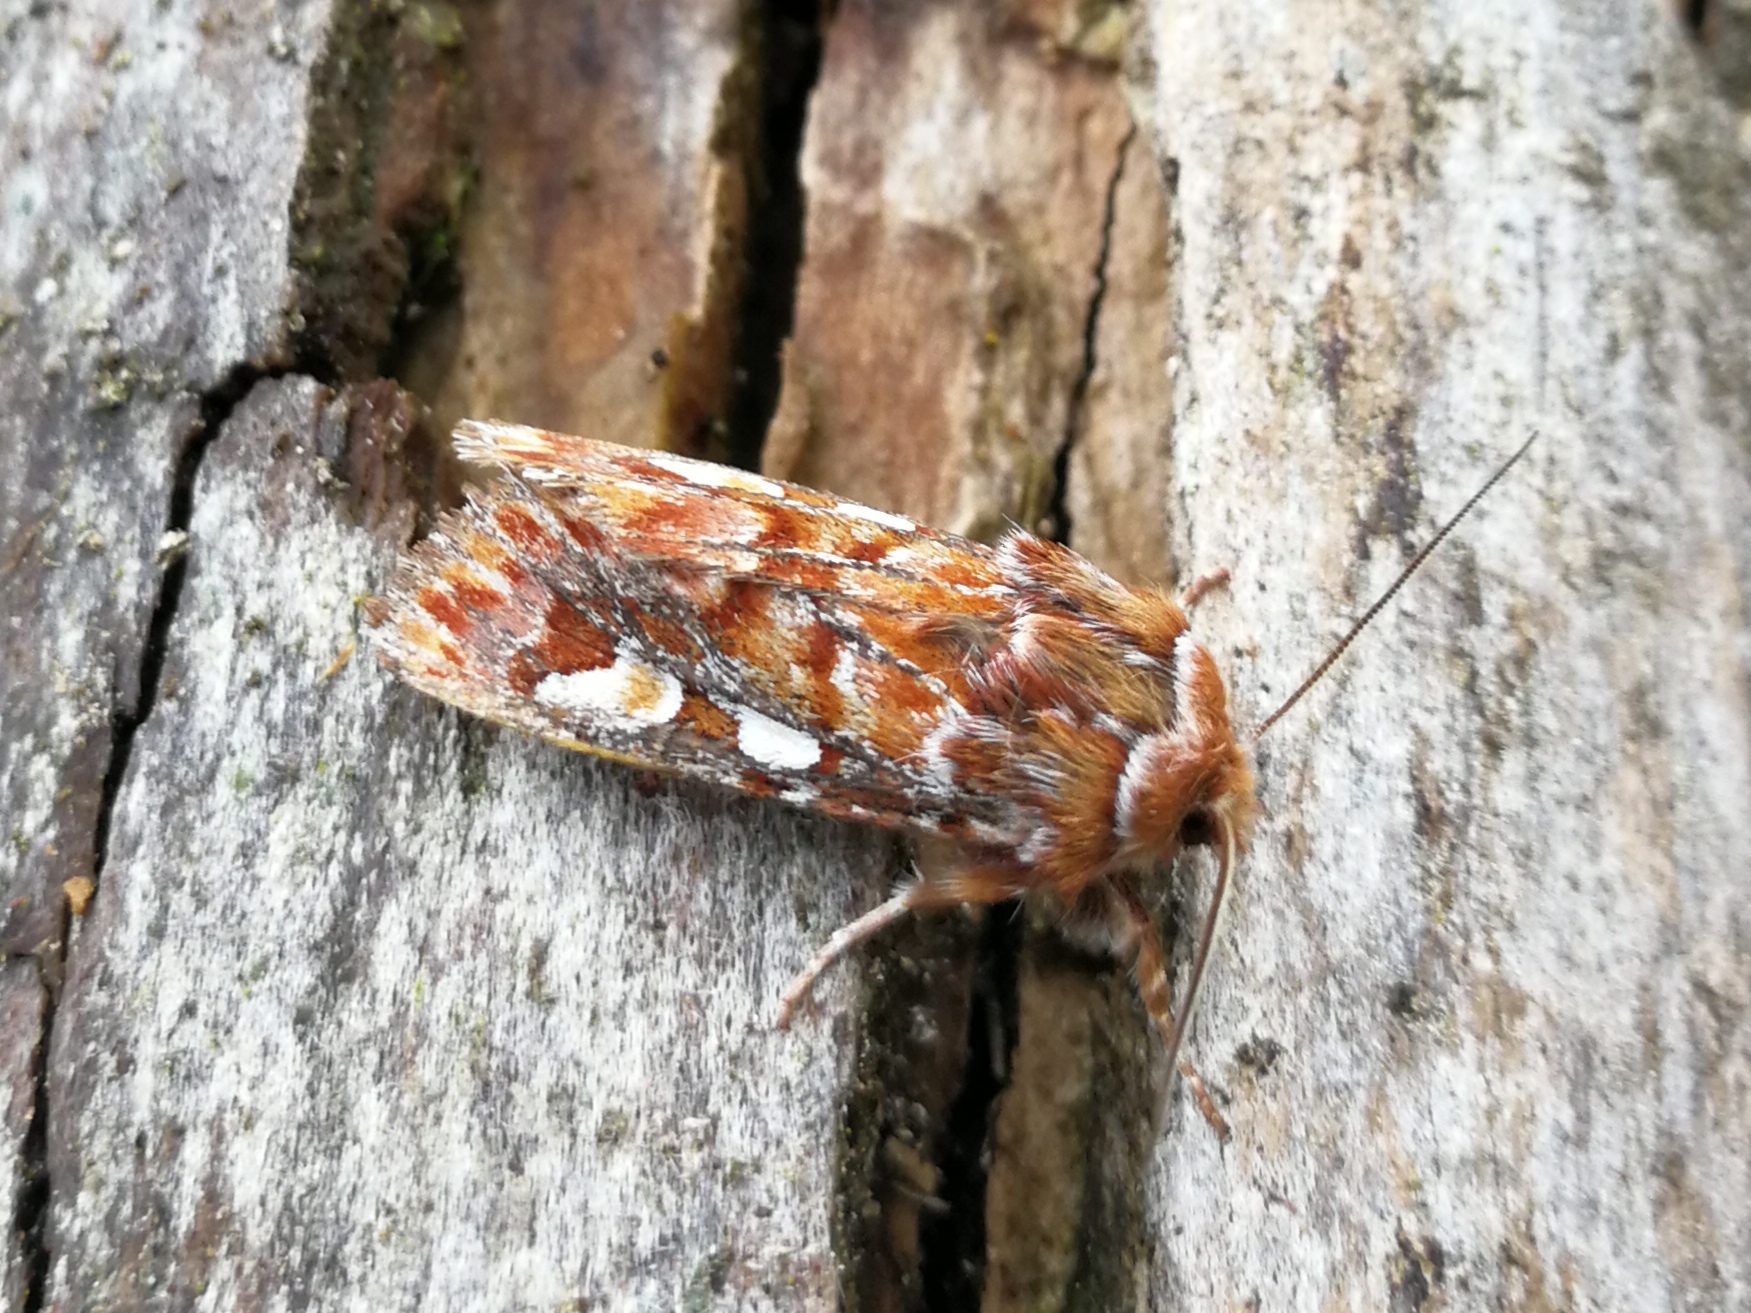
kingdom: Animalia
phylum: Arthropoda
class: Insecta
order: Lepidoptera
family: Noctuidae
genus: Panolis
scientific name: Panolis flammea
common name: Pine beauty
